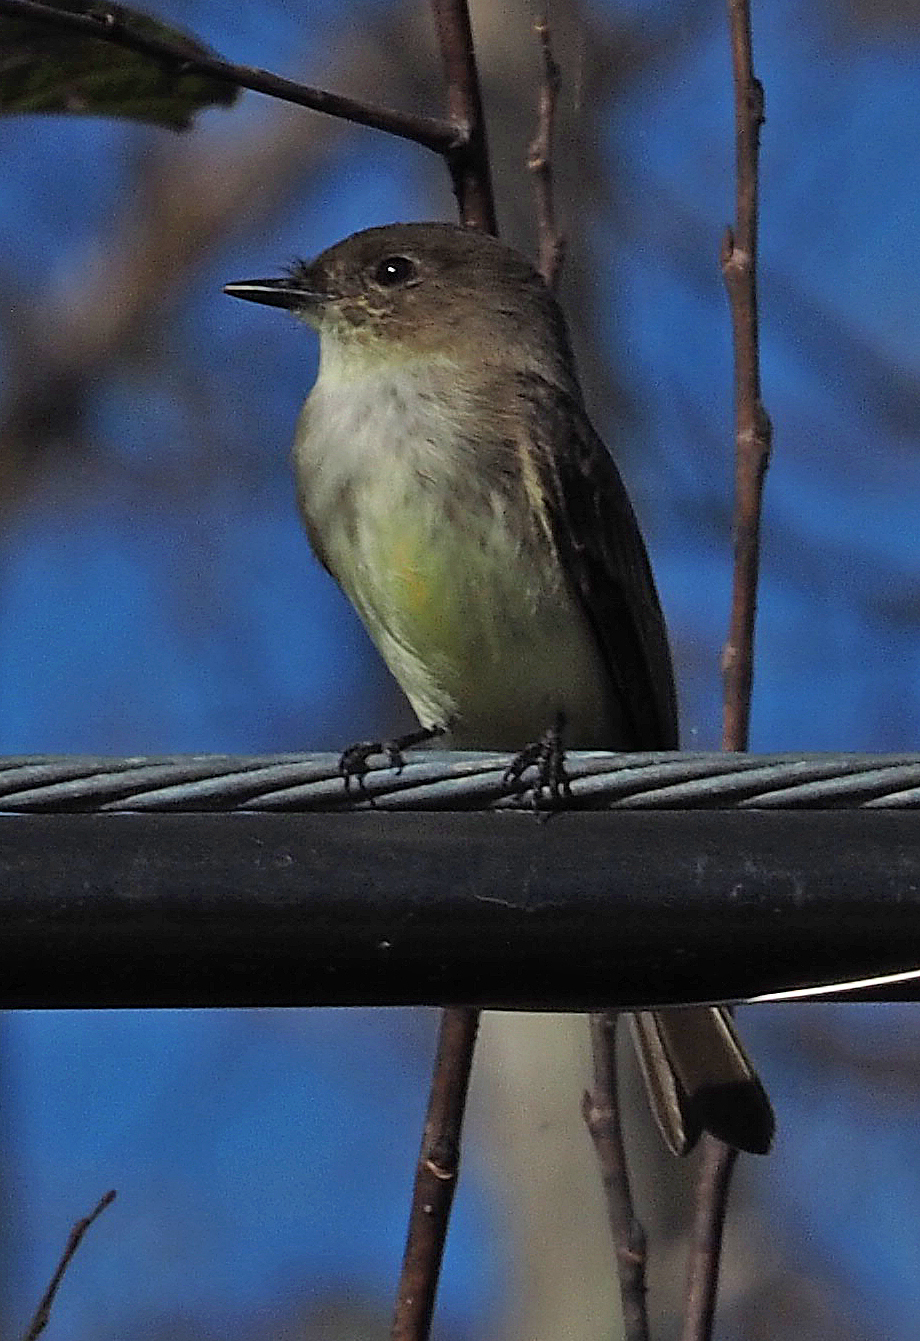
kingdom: Animalia
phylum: Chordata
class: Aves
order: Passeriformes
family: Tyrannidae
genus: Sayornis
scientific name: Sayornis phoebe
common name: Eastern phoebe
